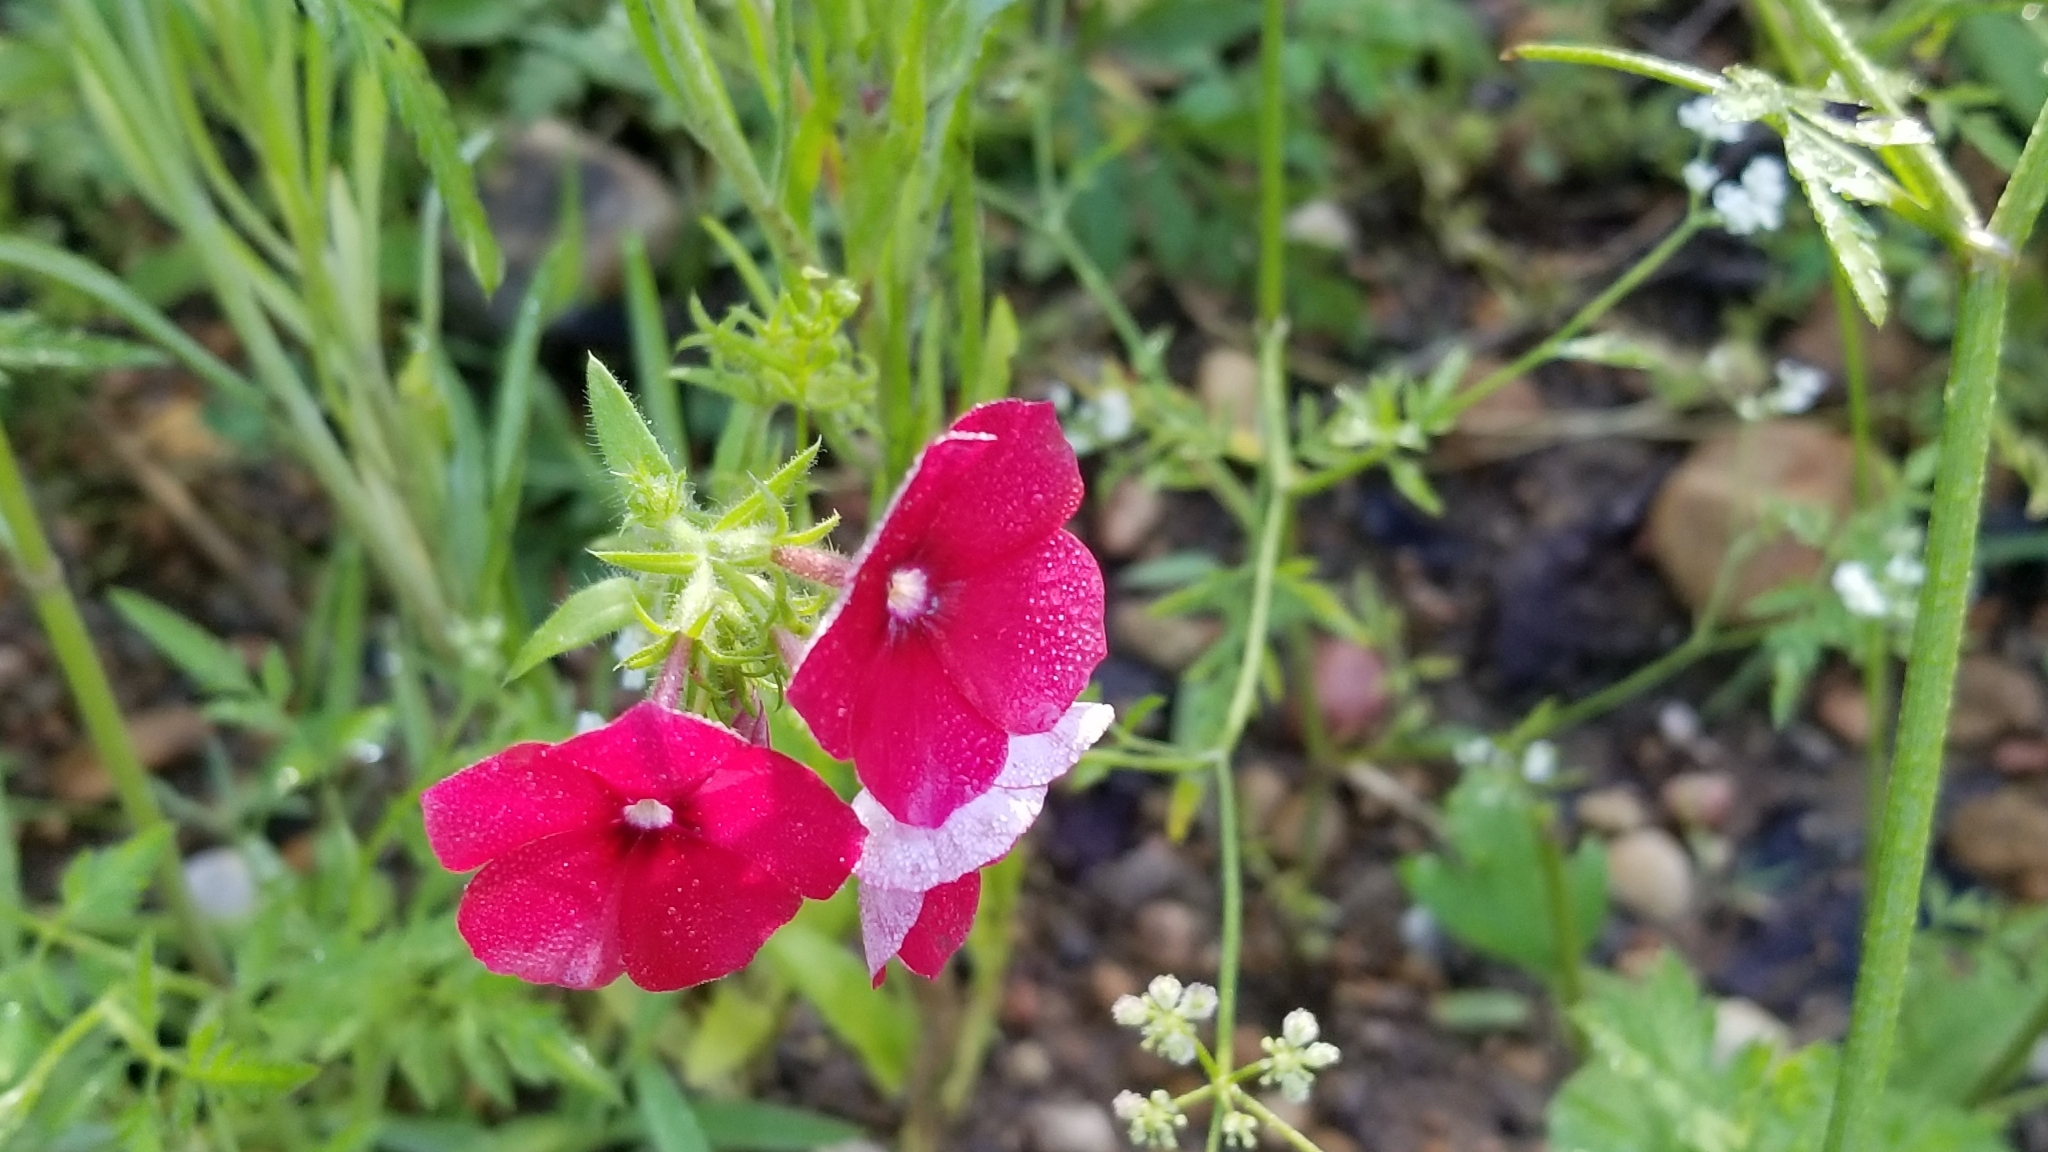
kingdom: Plantae
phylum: Tracheophyta
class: Magnoliopsida
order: Ericales
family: Polemoniaceae
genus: Phlox
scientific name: Phlox drummondii
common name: Drummond's phlox
